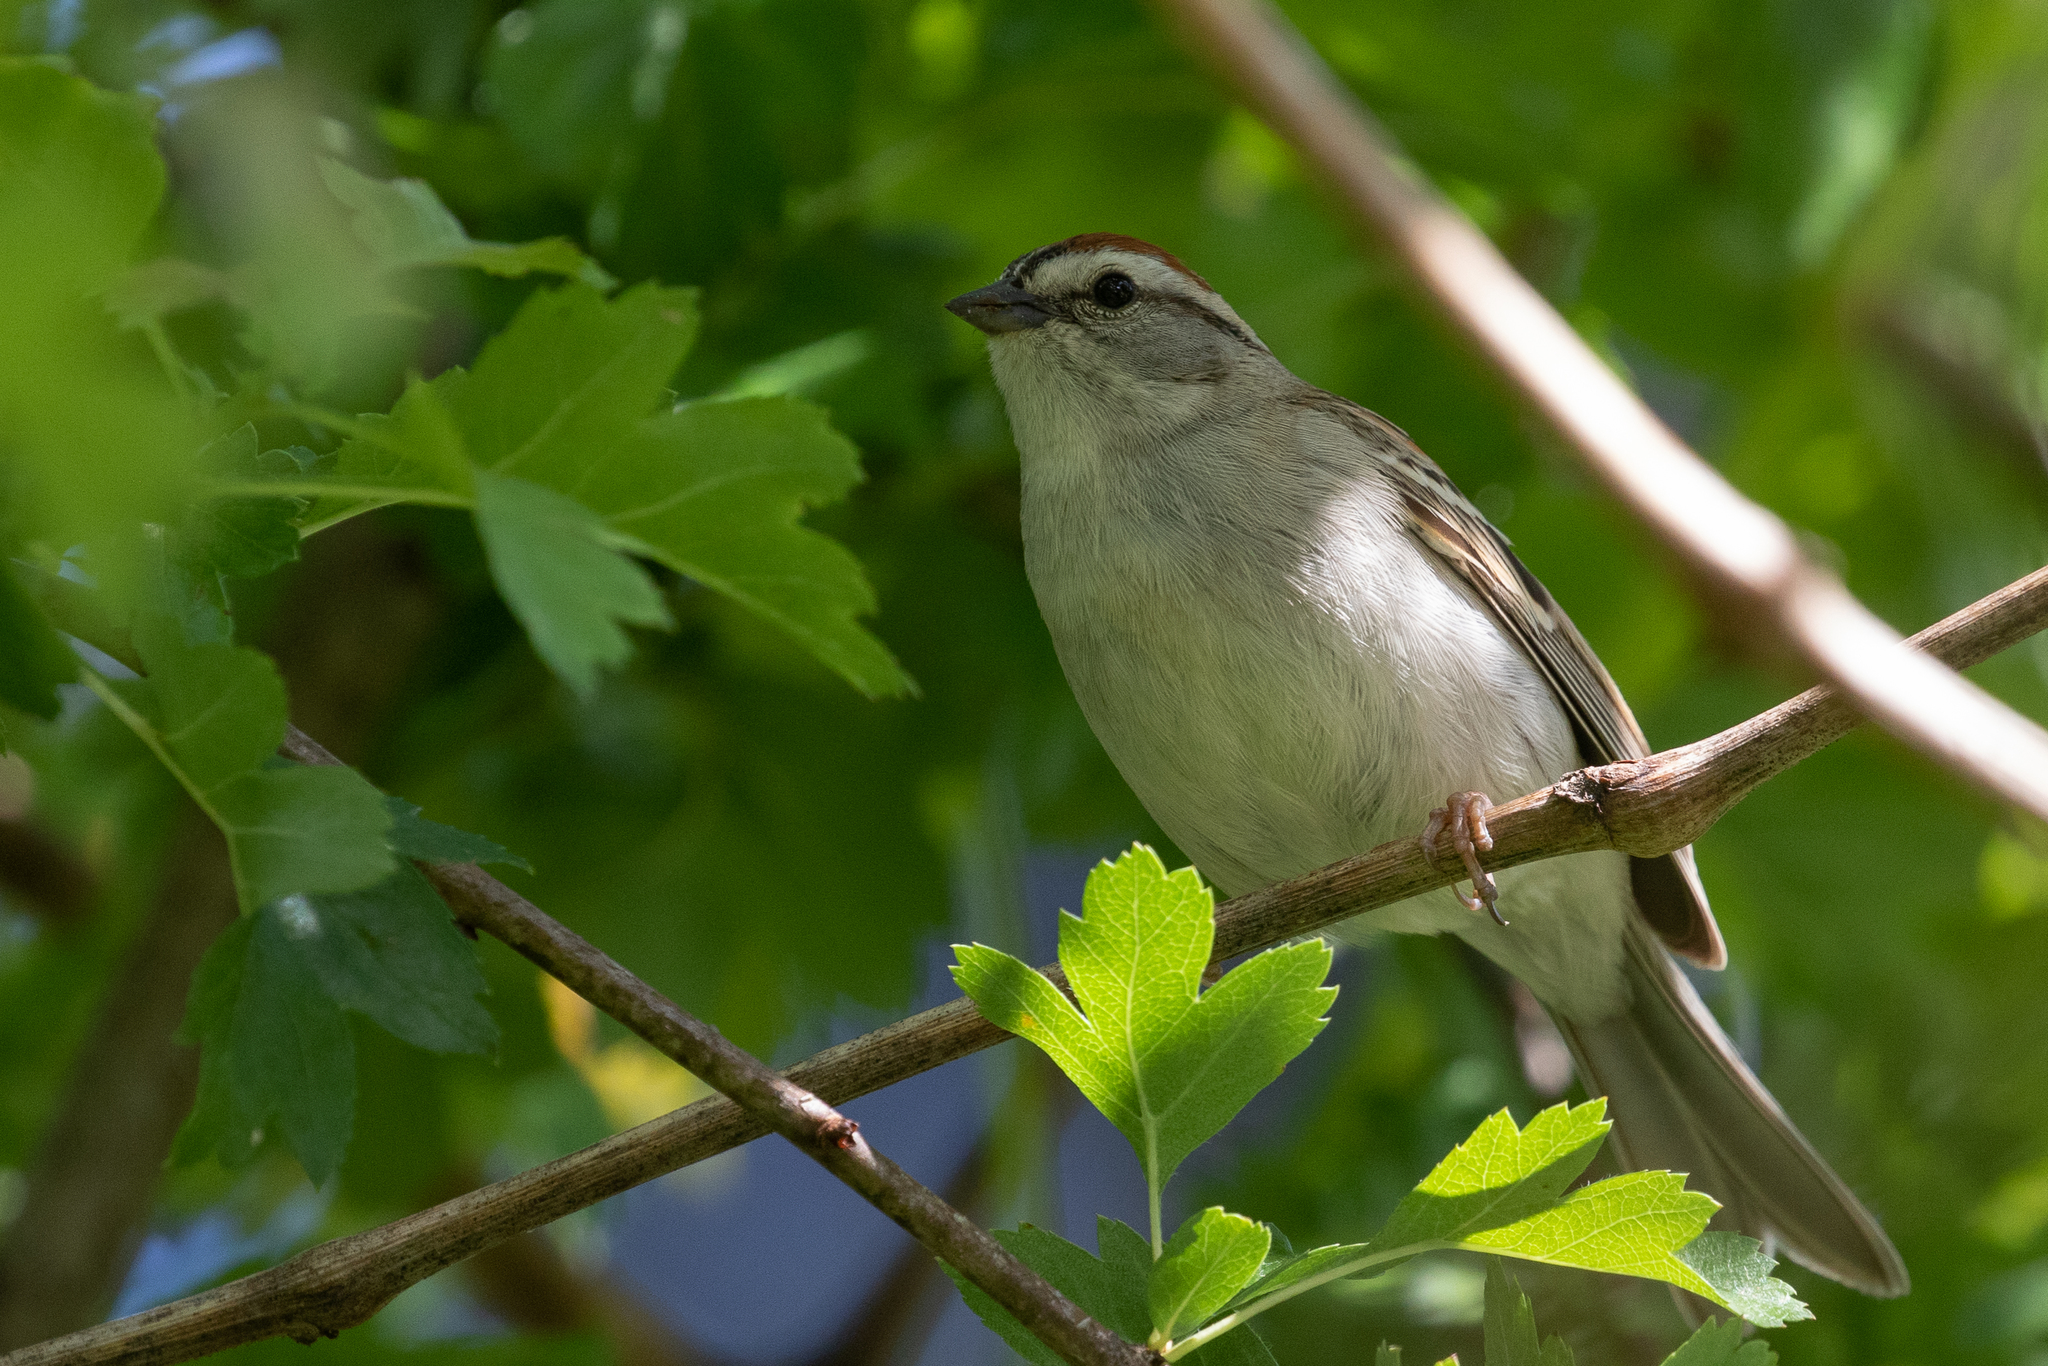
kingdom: Animalia
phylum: Chordata
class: Aves
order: Passeriformes
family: Passerellidae
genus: Spizella
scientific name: Spizella passerina
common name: Chipping sparrow
